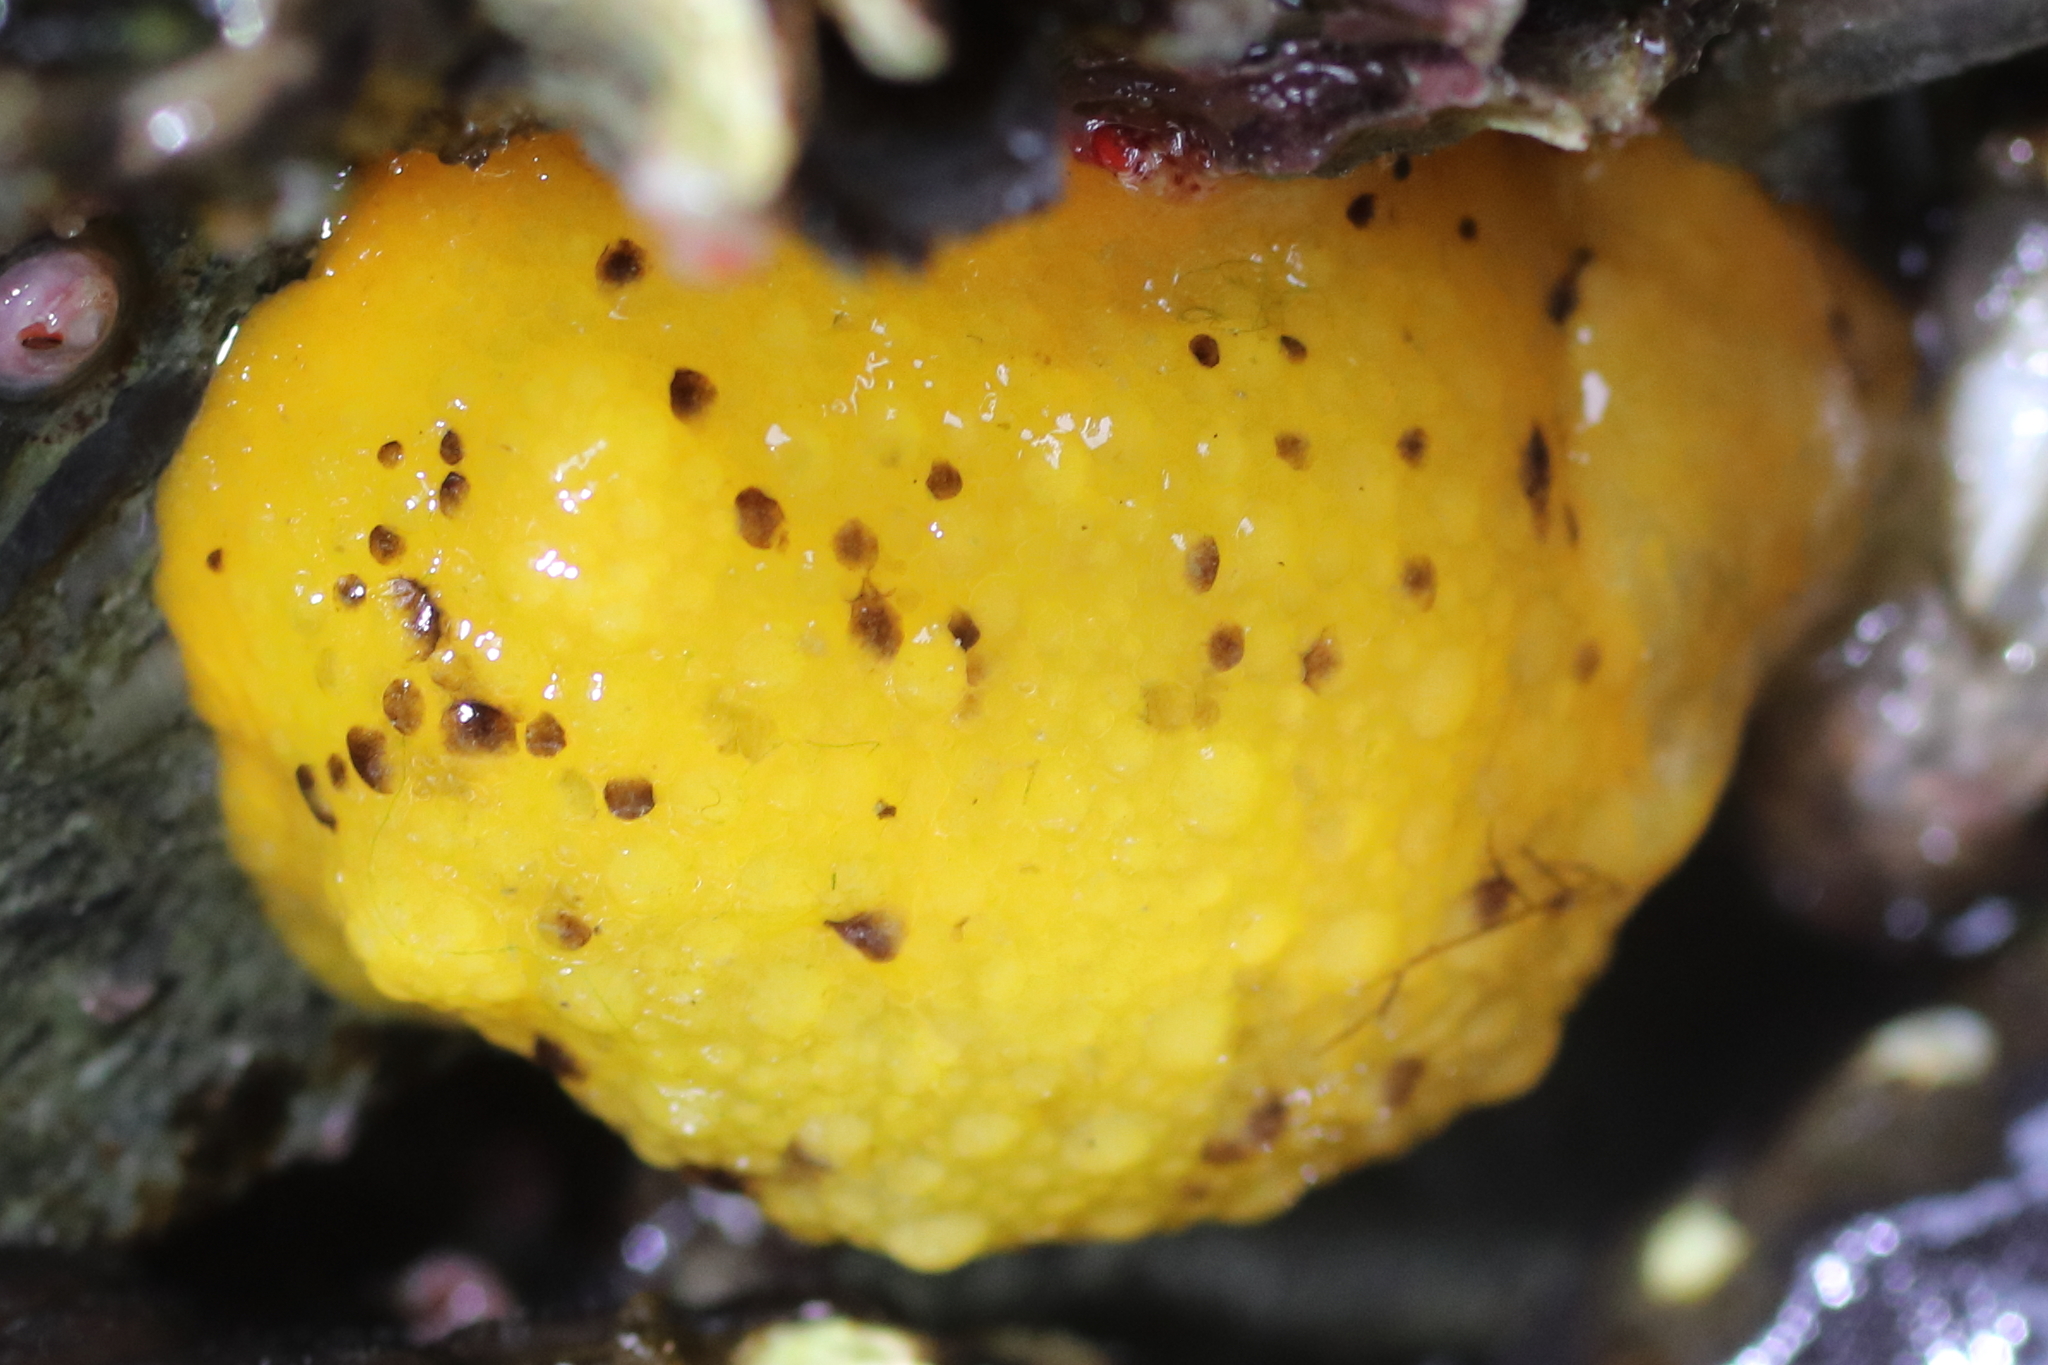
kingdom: Animalia
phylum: Mollusca
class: Gastropoda
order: Nudibranchia
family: Dorididae
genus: Doris
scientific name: Doris montereyensis
